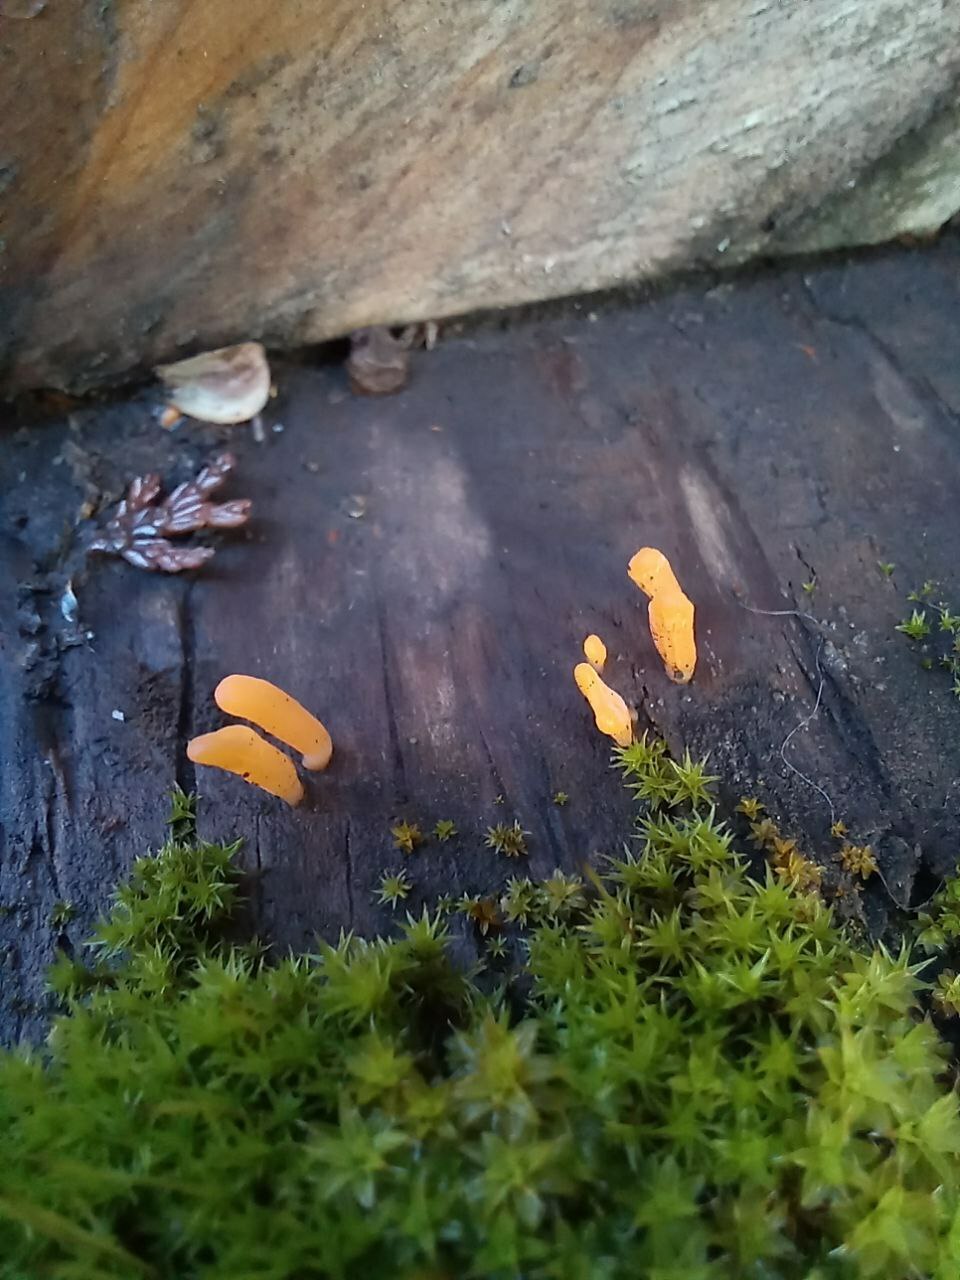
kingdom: Fungi
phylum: Basidiomycota
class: Dacrymycetes
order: Dacrymycetales
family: Dacrymycetaceae
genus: Calocera
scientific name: Calocera cornea
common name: Small stagshorn
